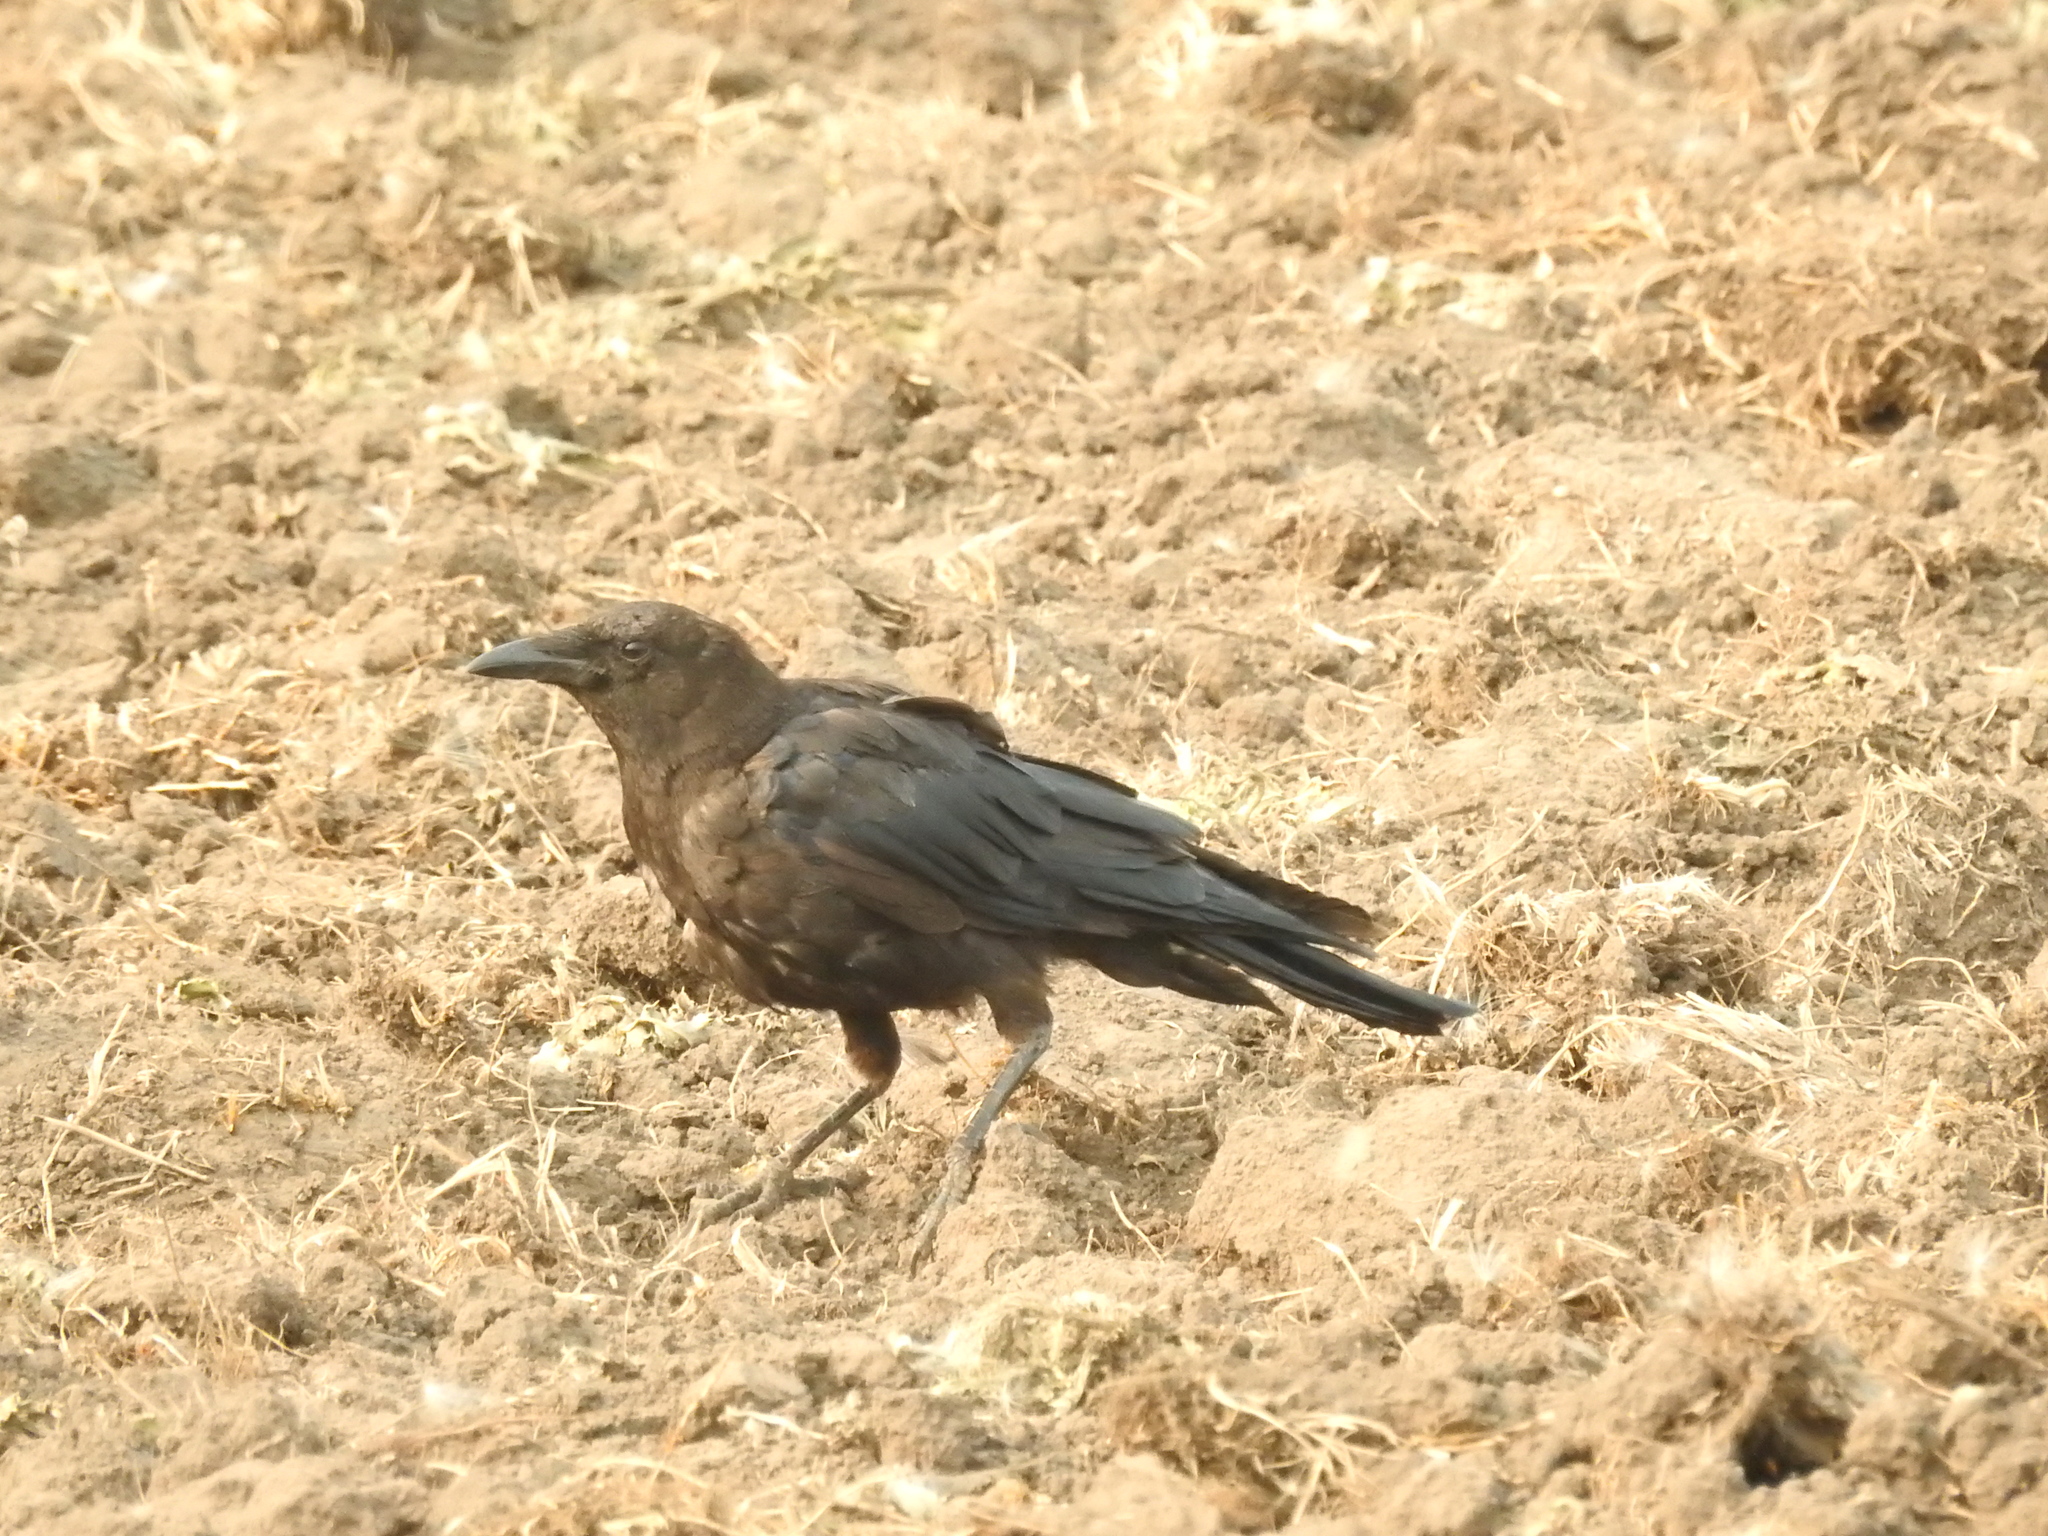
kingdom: Animalia
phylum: Chordata
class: Aves
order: Passeriformes
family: Corvidae
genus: Corvus
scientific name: Corvus brachyrhynchos
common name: American crow
